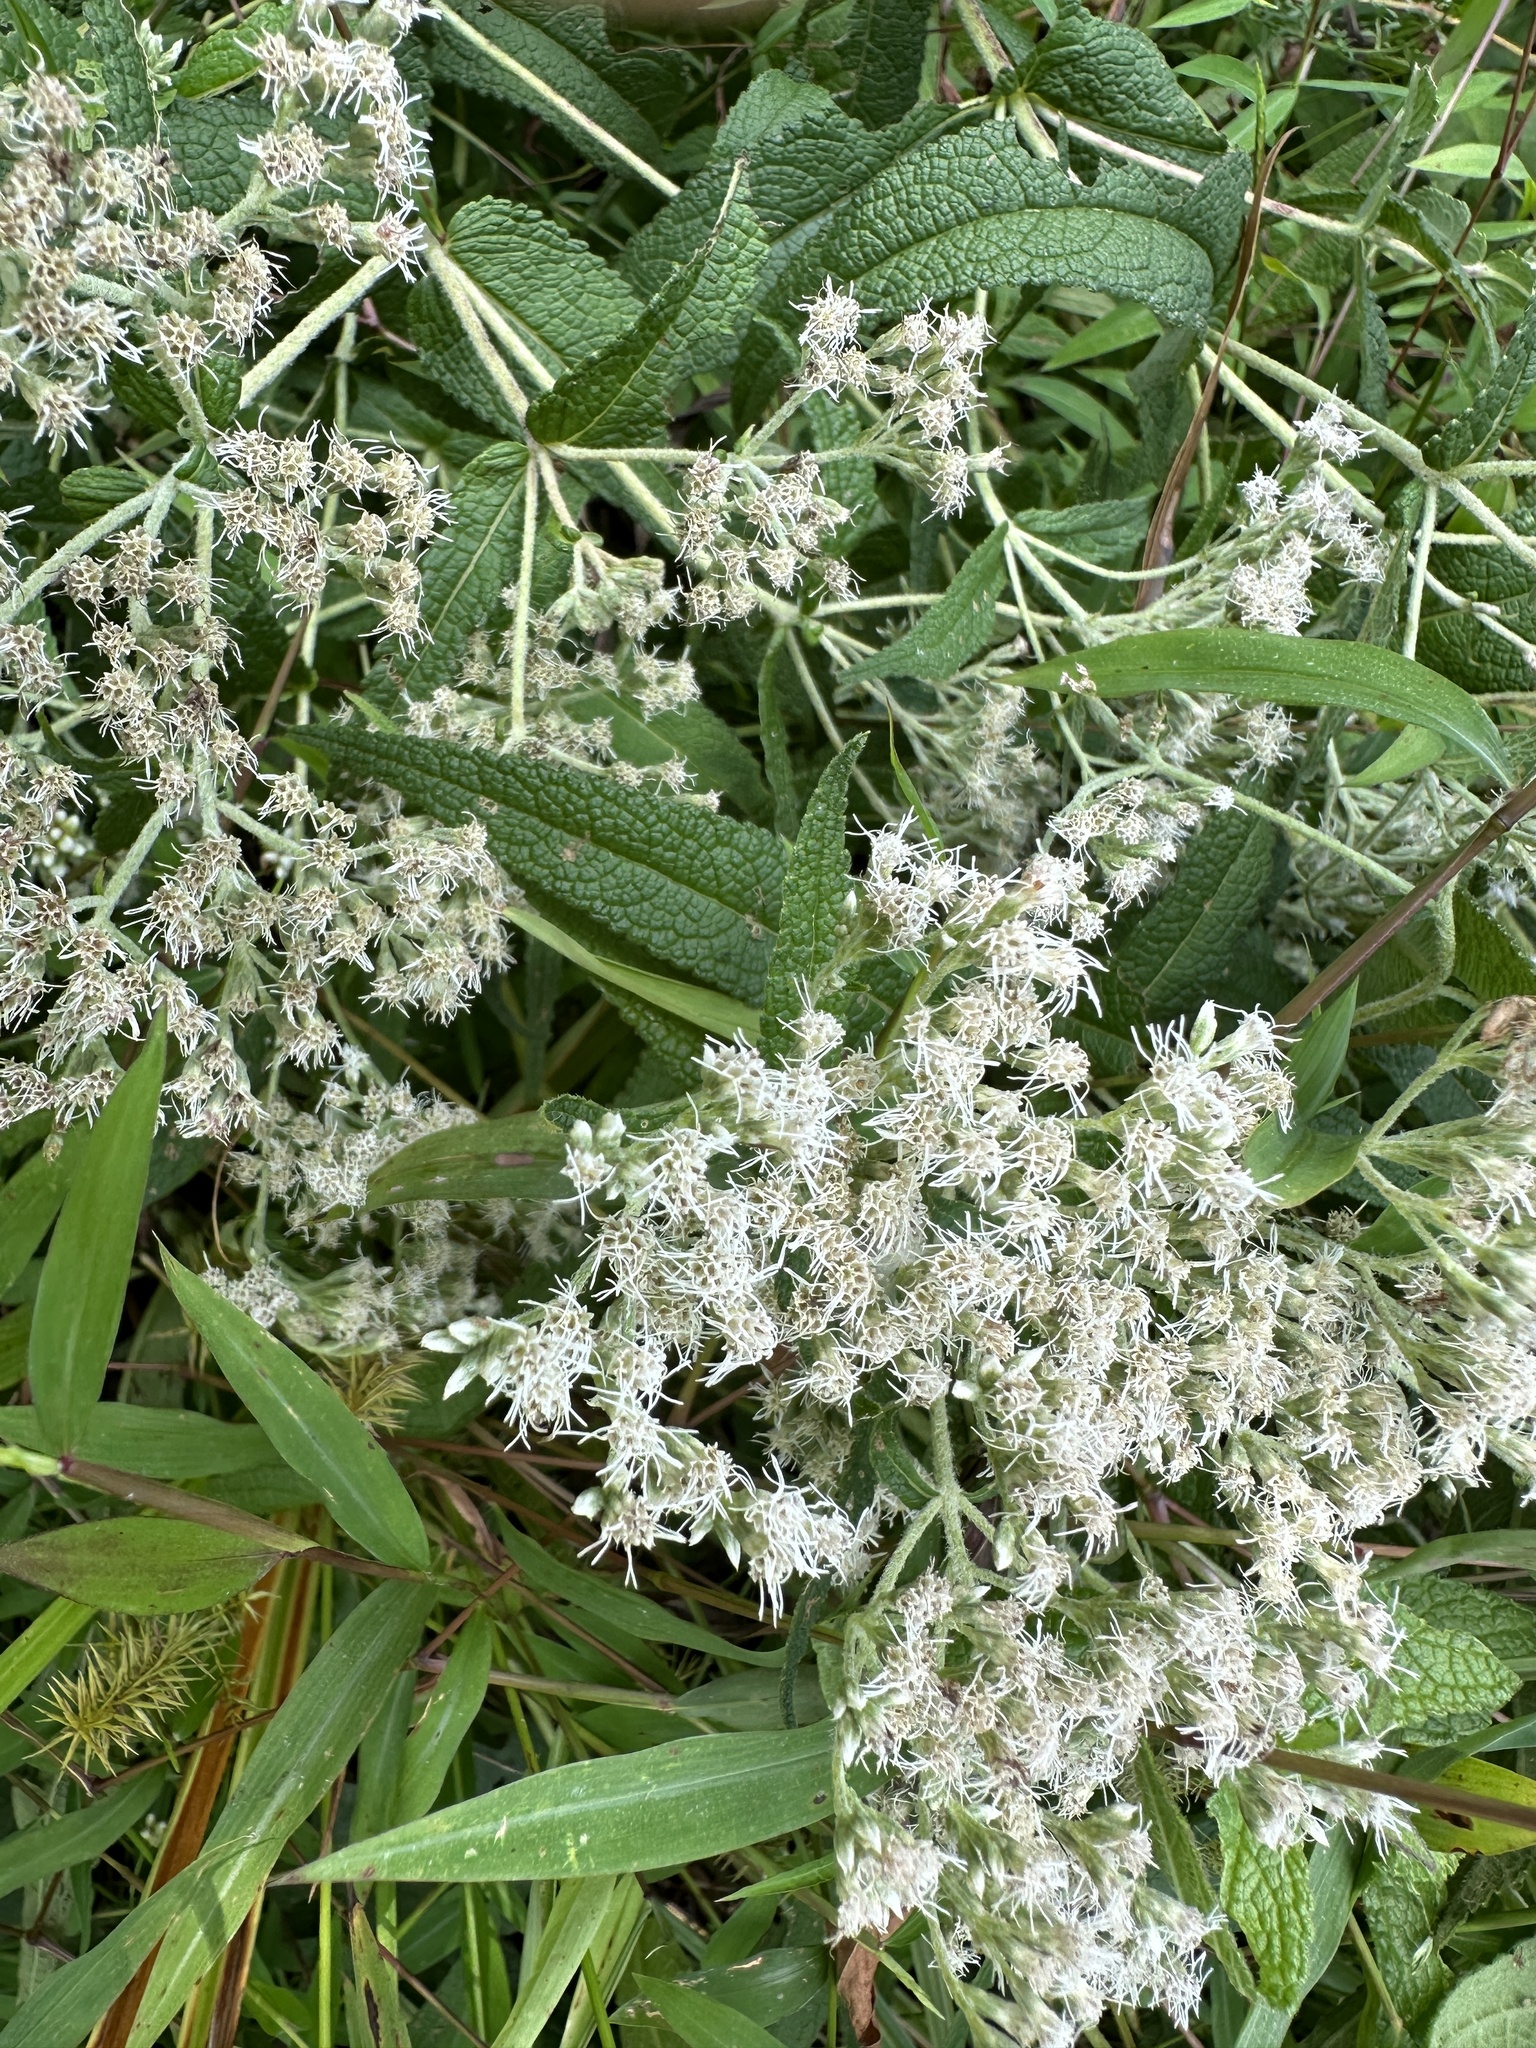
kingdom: Plantae
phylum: Tracheophyta
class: Magnoliopsida
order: Asterales
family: Asteraceae
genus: Eupatorium
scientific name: Eupatorium perfoliatum
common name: Boneset
